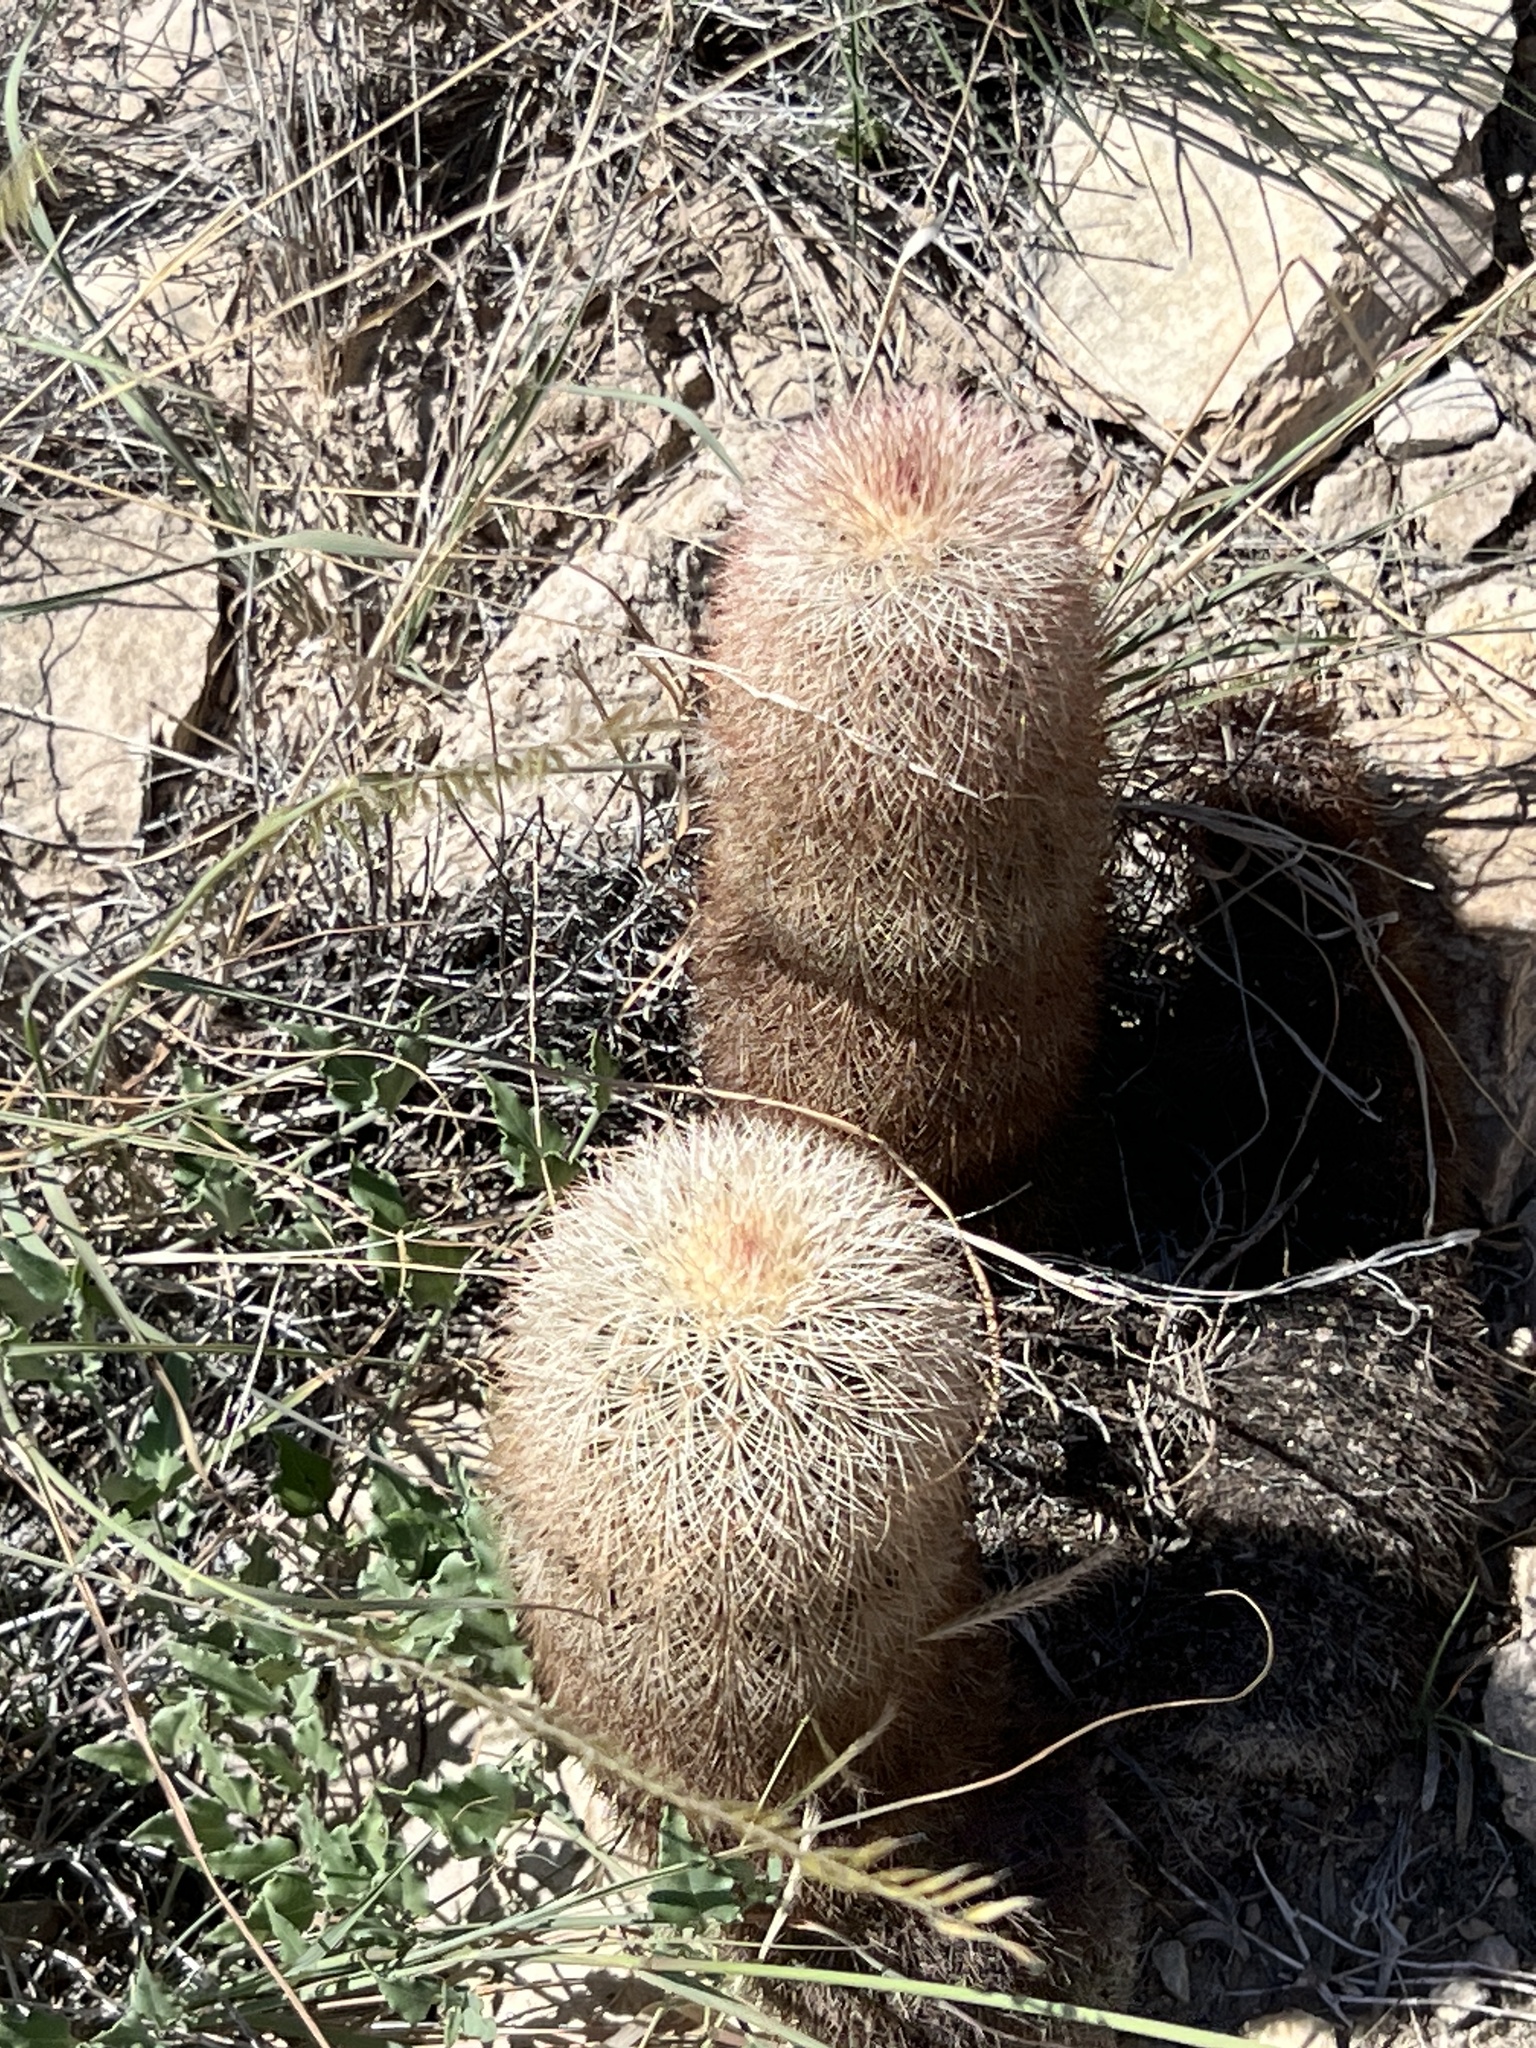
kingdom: Plantae
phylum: Tracheophyta
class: Magnoliopsida
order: Caryophyllales
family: Cactaceae
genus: Echinocereus
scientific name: Echinocereus dasyacanthus
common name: Spiny hedgehog cactus
